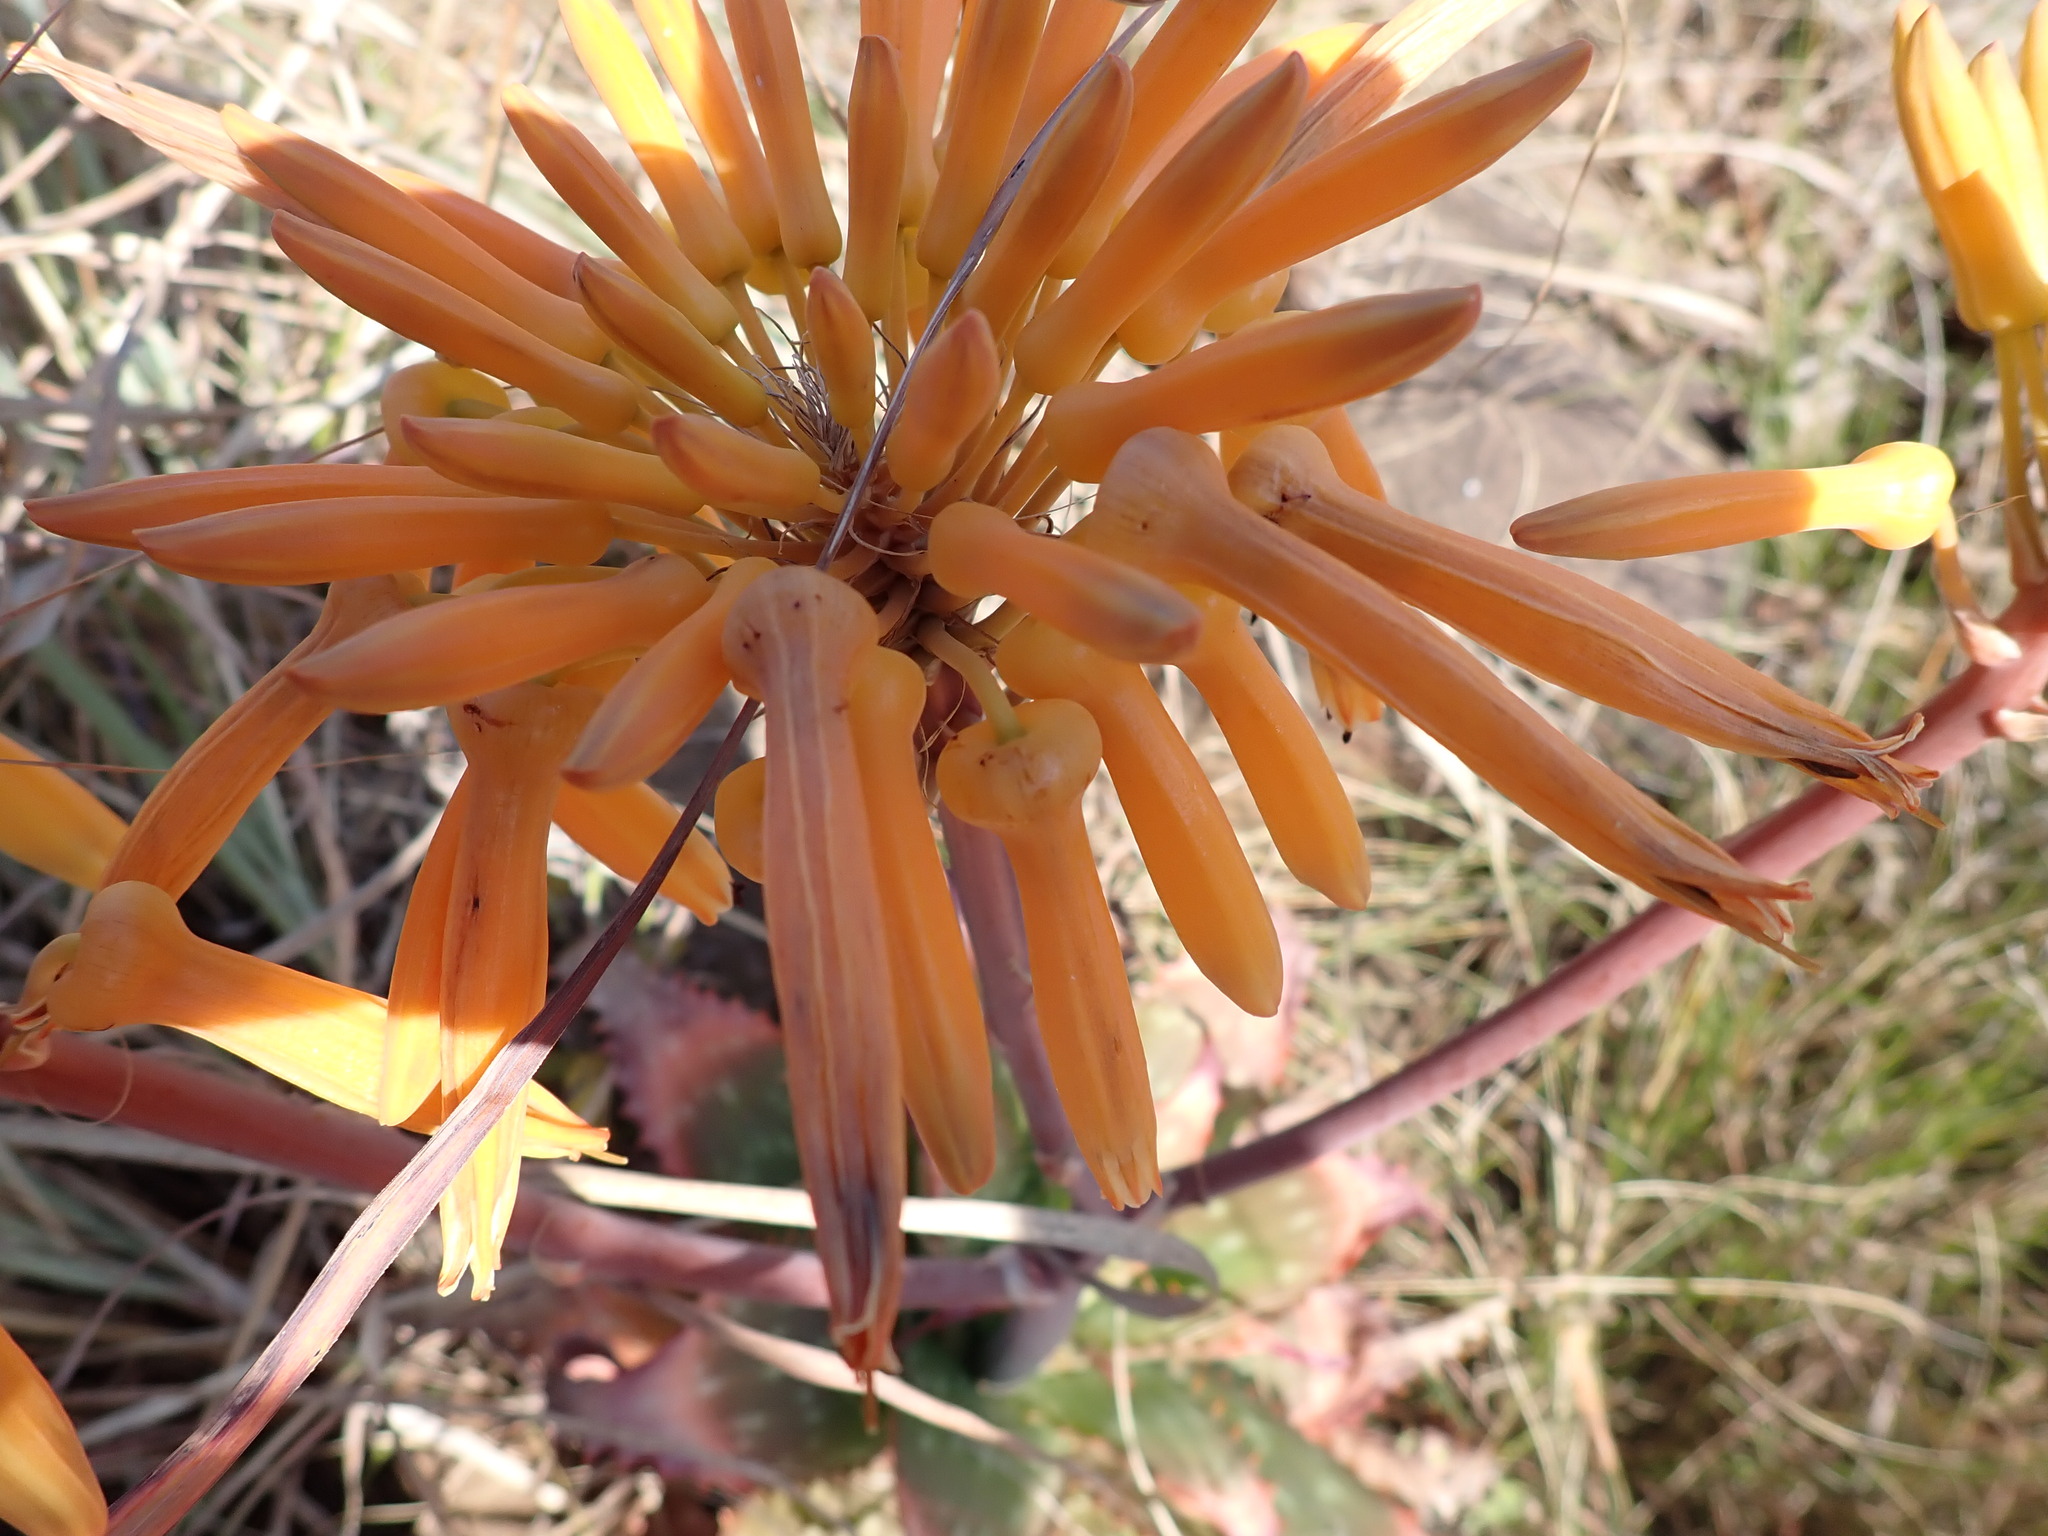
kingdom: Plantae
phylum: Tracheophyta
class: Liliopsida
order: Asparagales
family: Asphodelaceae
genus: Aloe
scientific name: Aloe maculata
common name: Broadleaf aloe
